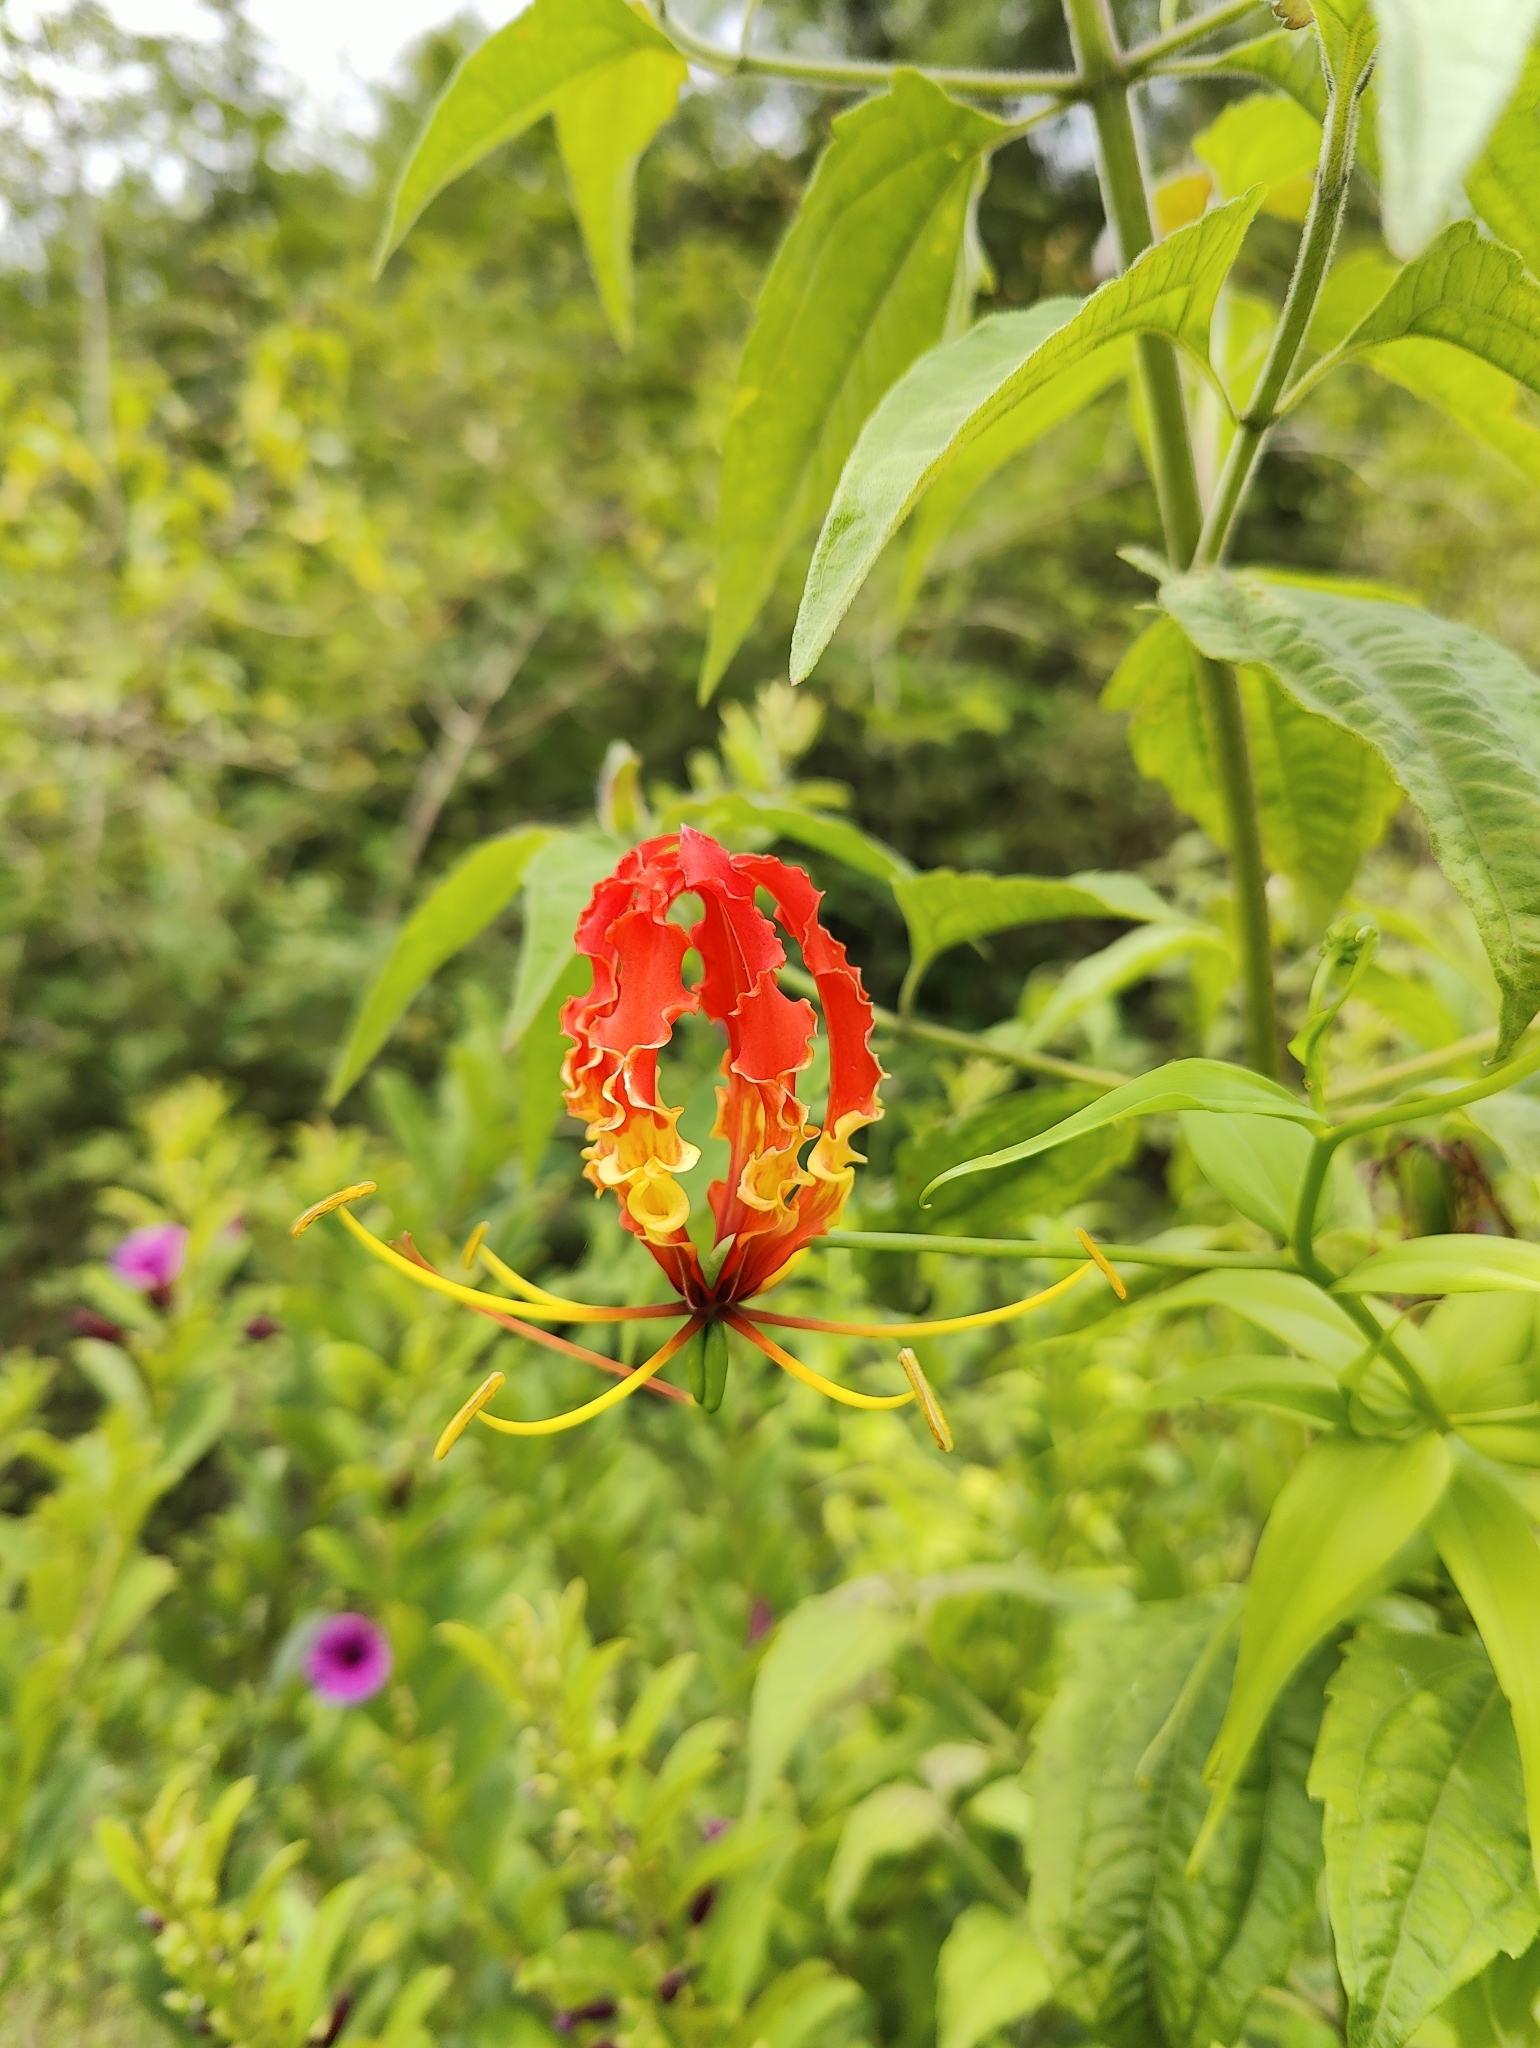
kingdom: Plantae
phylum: Tracheophyta
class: Liliopsida
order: Liliales
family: Colchicaceae
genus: Gloriosa
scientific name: Gloriosa superba
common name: Flame lily
